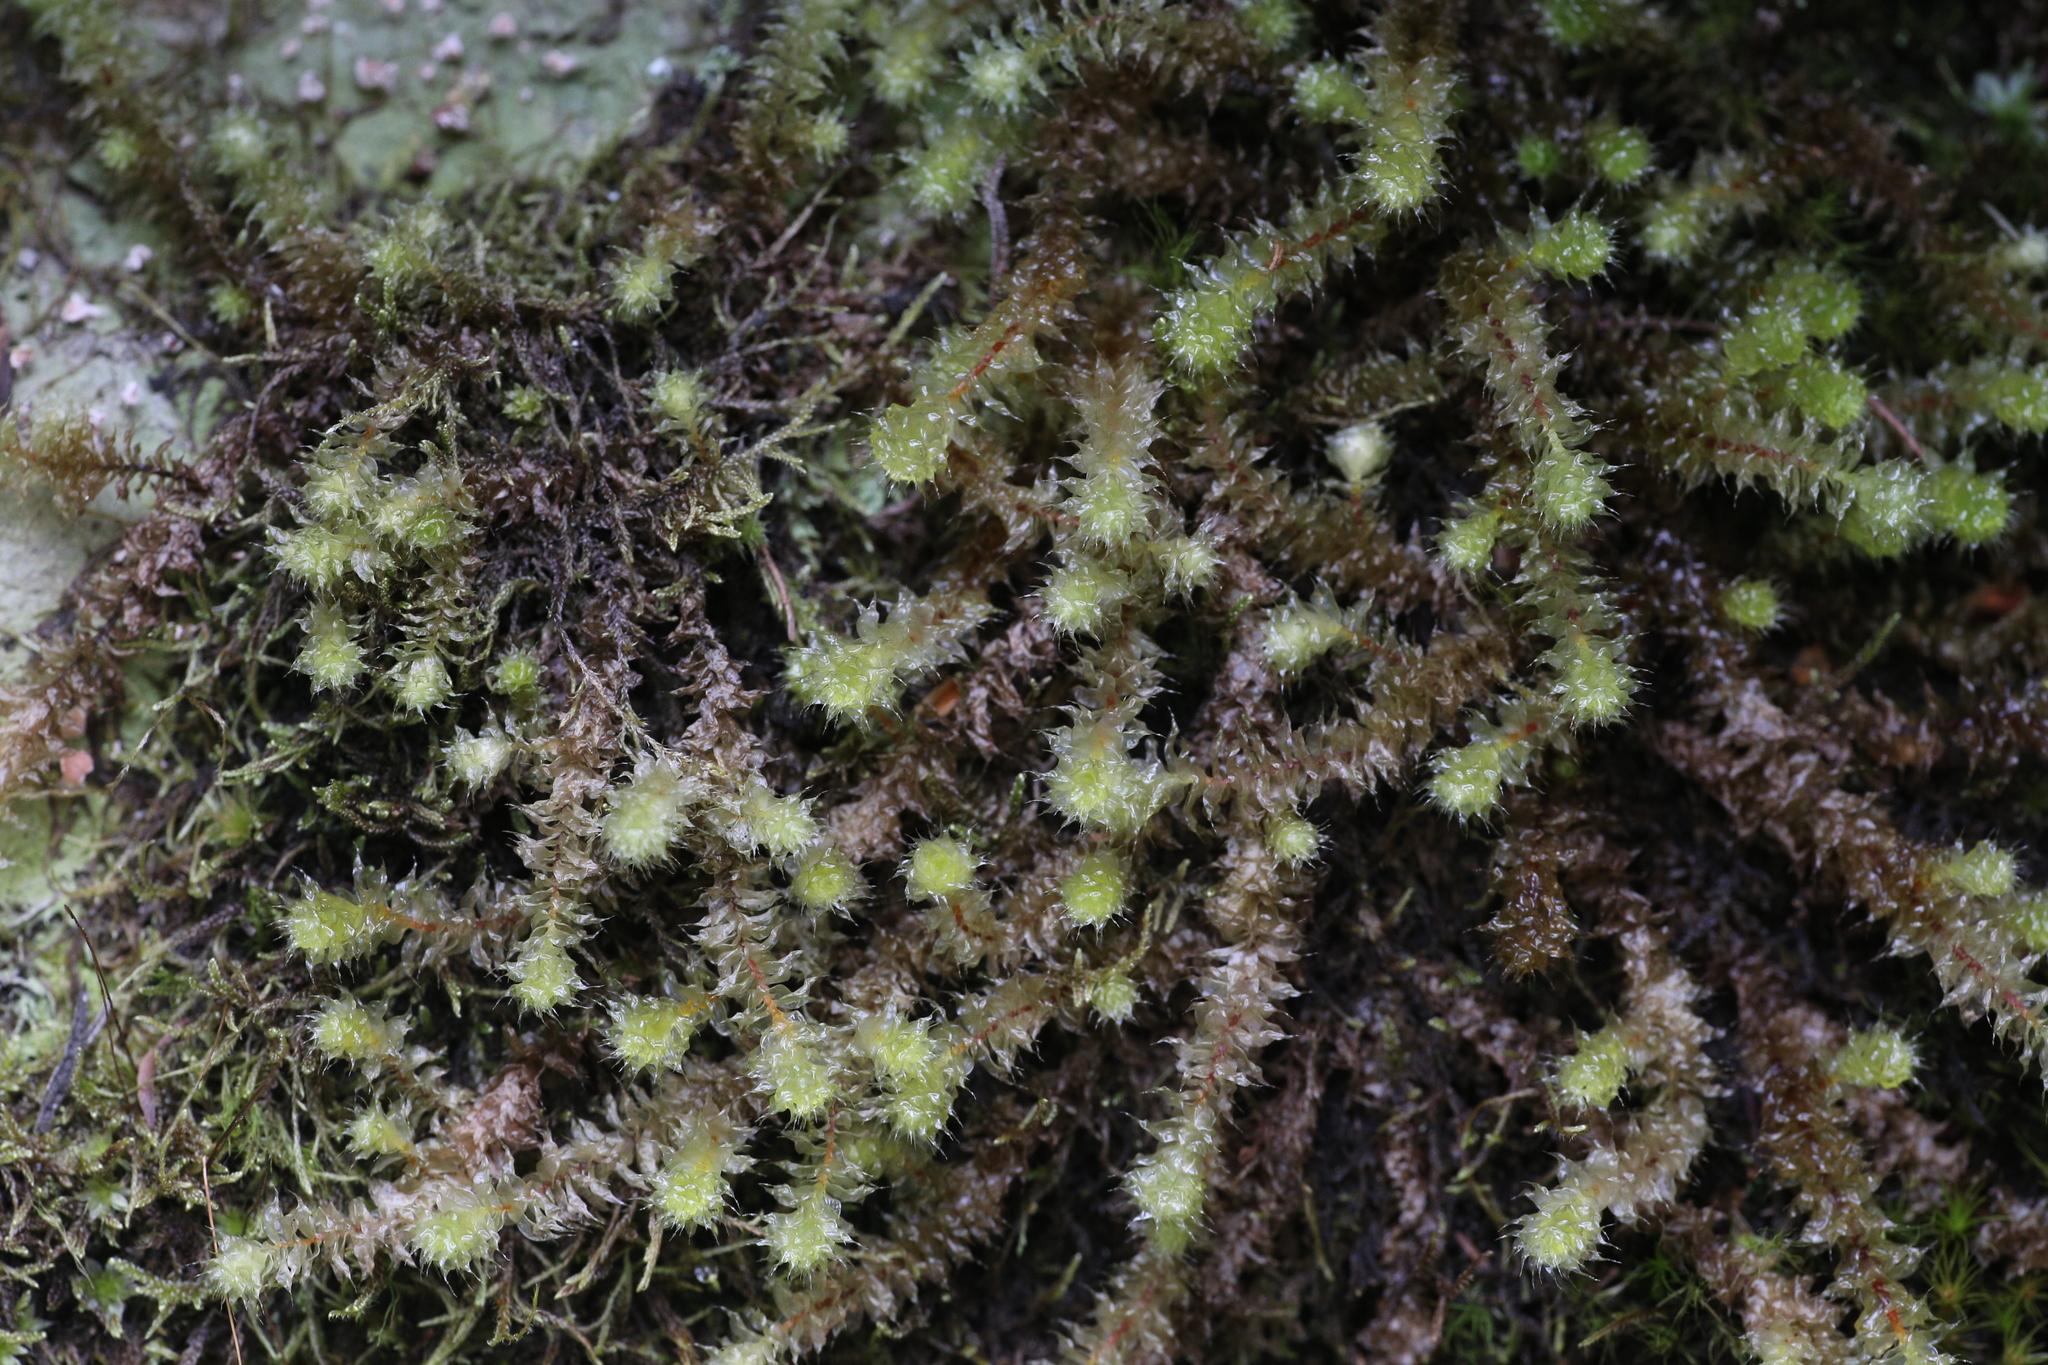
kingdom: Plantae
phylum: Bryophyta
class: Bryopsida
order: Ptychomniales
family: Ptychomniaceae
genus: Ptychomnion
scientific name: Ptychomnion aciculare
